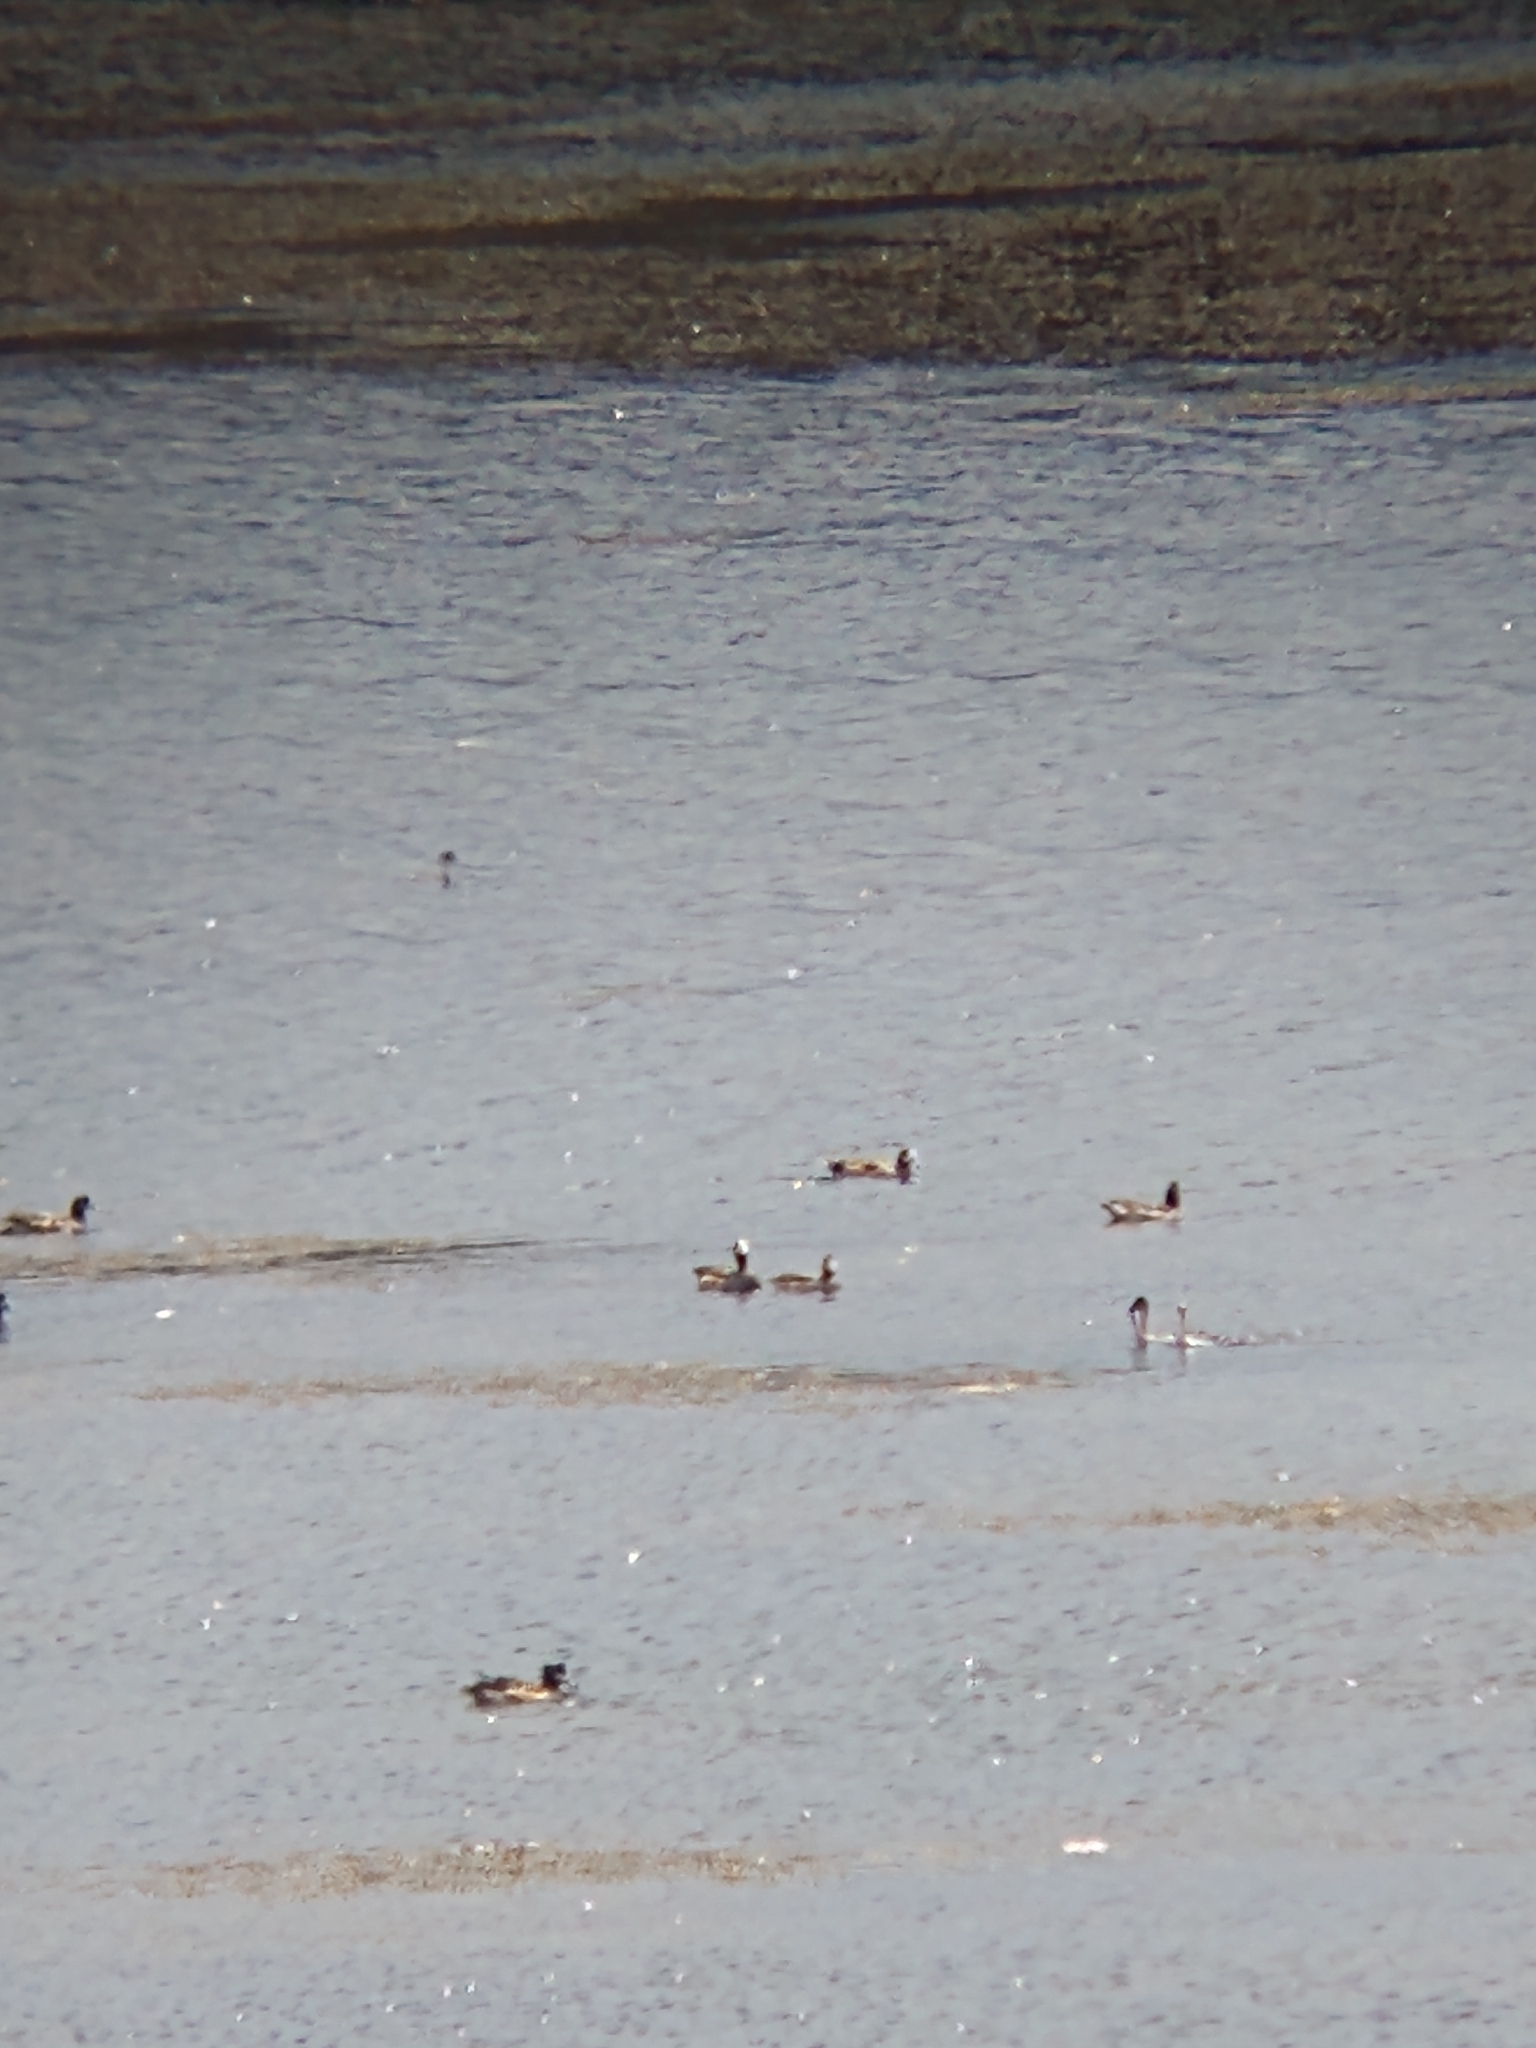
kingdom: Animalia
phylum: Chordata
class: Aves
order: Anseriformes
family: Anatidae
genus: Mareca
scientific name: Mareca sibilatrix
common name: Chiloe wigeon
